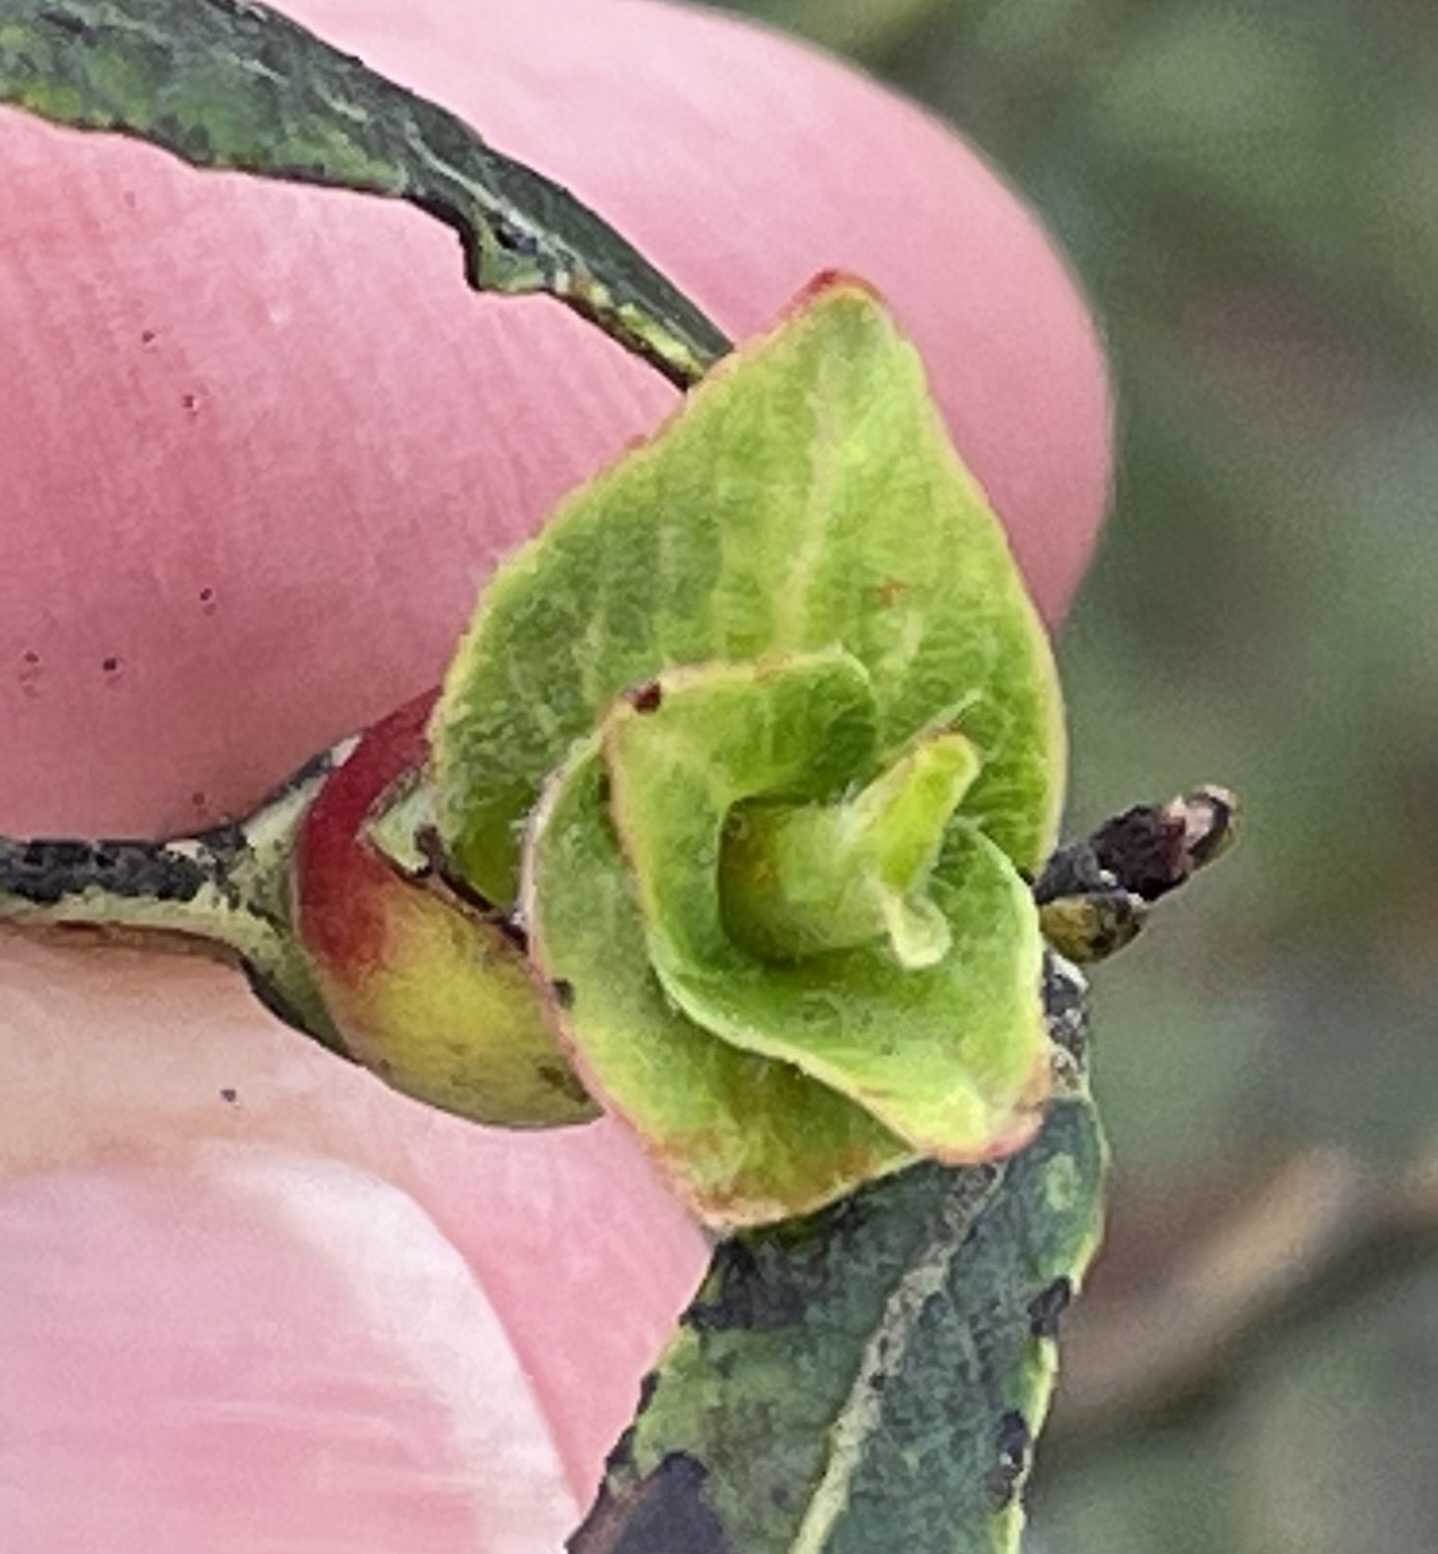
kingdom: Animalia
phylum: Arthropoda
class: Insecta
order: Diptera
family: Cecidomyiidae
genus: Rabdophaga
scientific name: Rabdophaga salicisbrassicoides
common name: Willow cabbagegall midge
